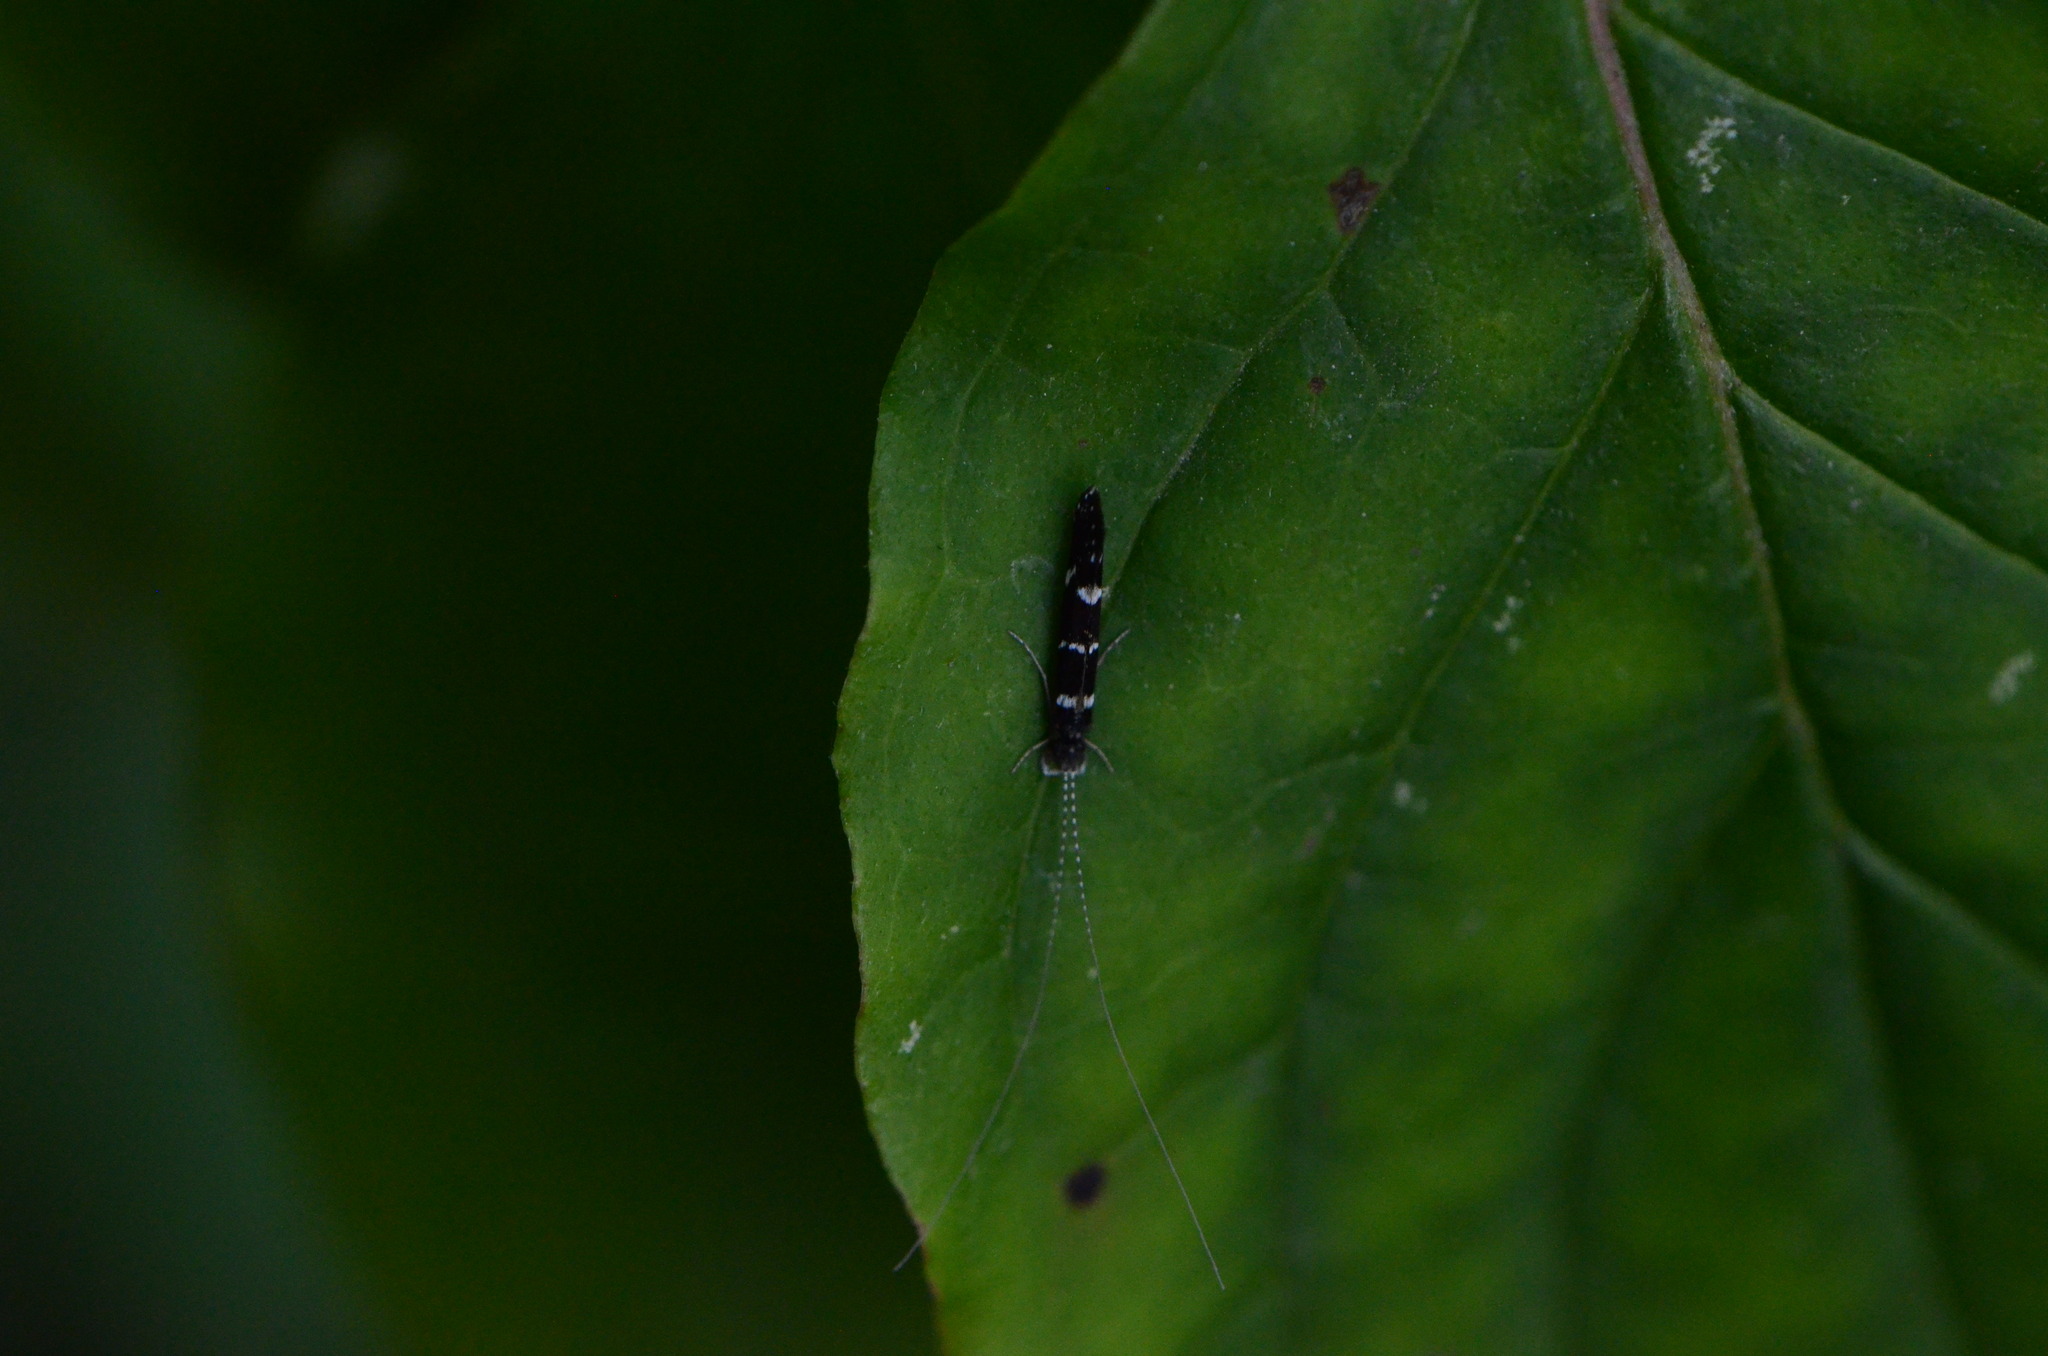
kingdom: Animalia
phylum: Arthropoda
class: Insecta
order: Trichoptera
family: Leptoceridae
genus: Athripsodes
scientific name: Athripsodes albifrons
